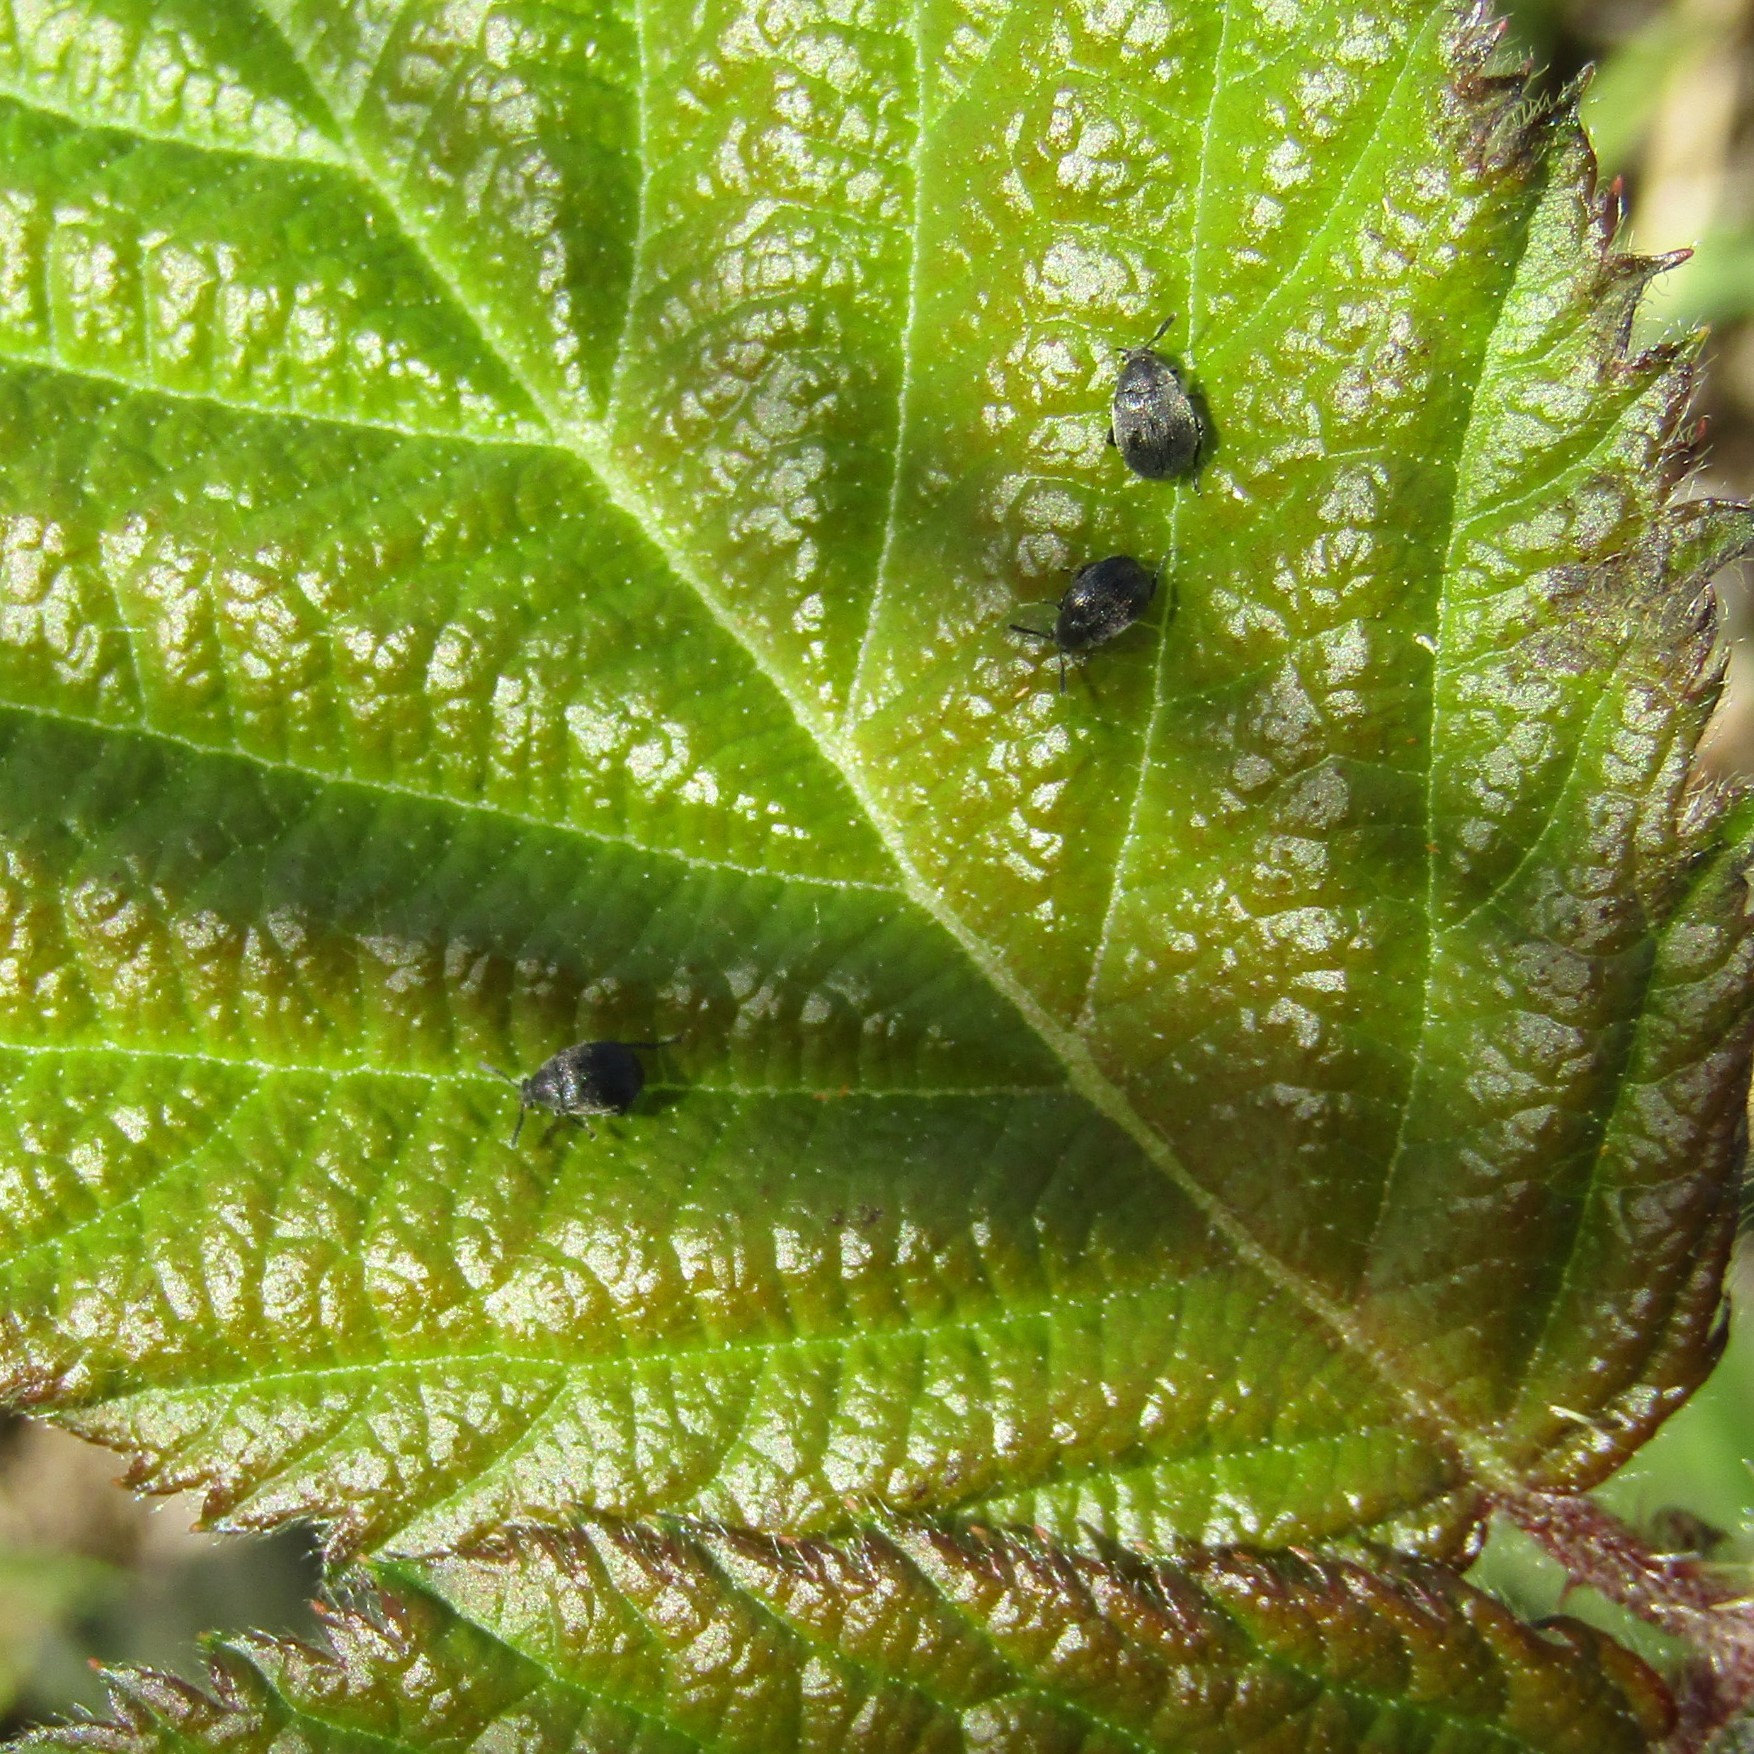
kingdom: Animalia
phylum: Arthropoda
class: Insecta
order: Coleoptera
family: Chrysomelidae
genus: Bruchidius
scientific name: Bruchidius villosus
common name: Scotch broom bruchid
